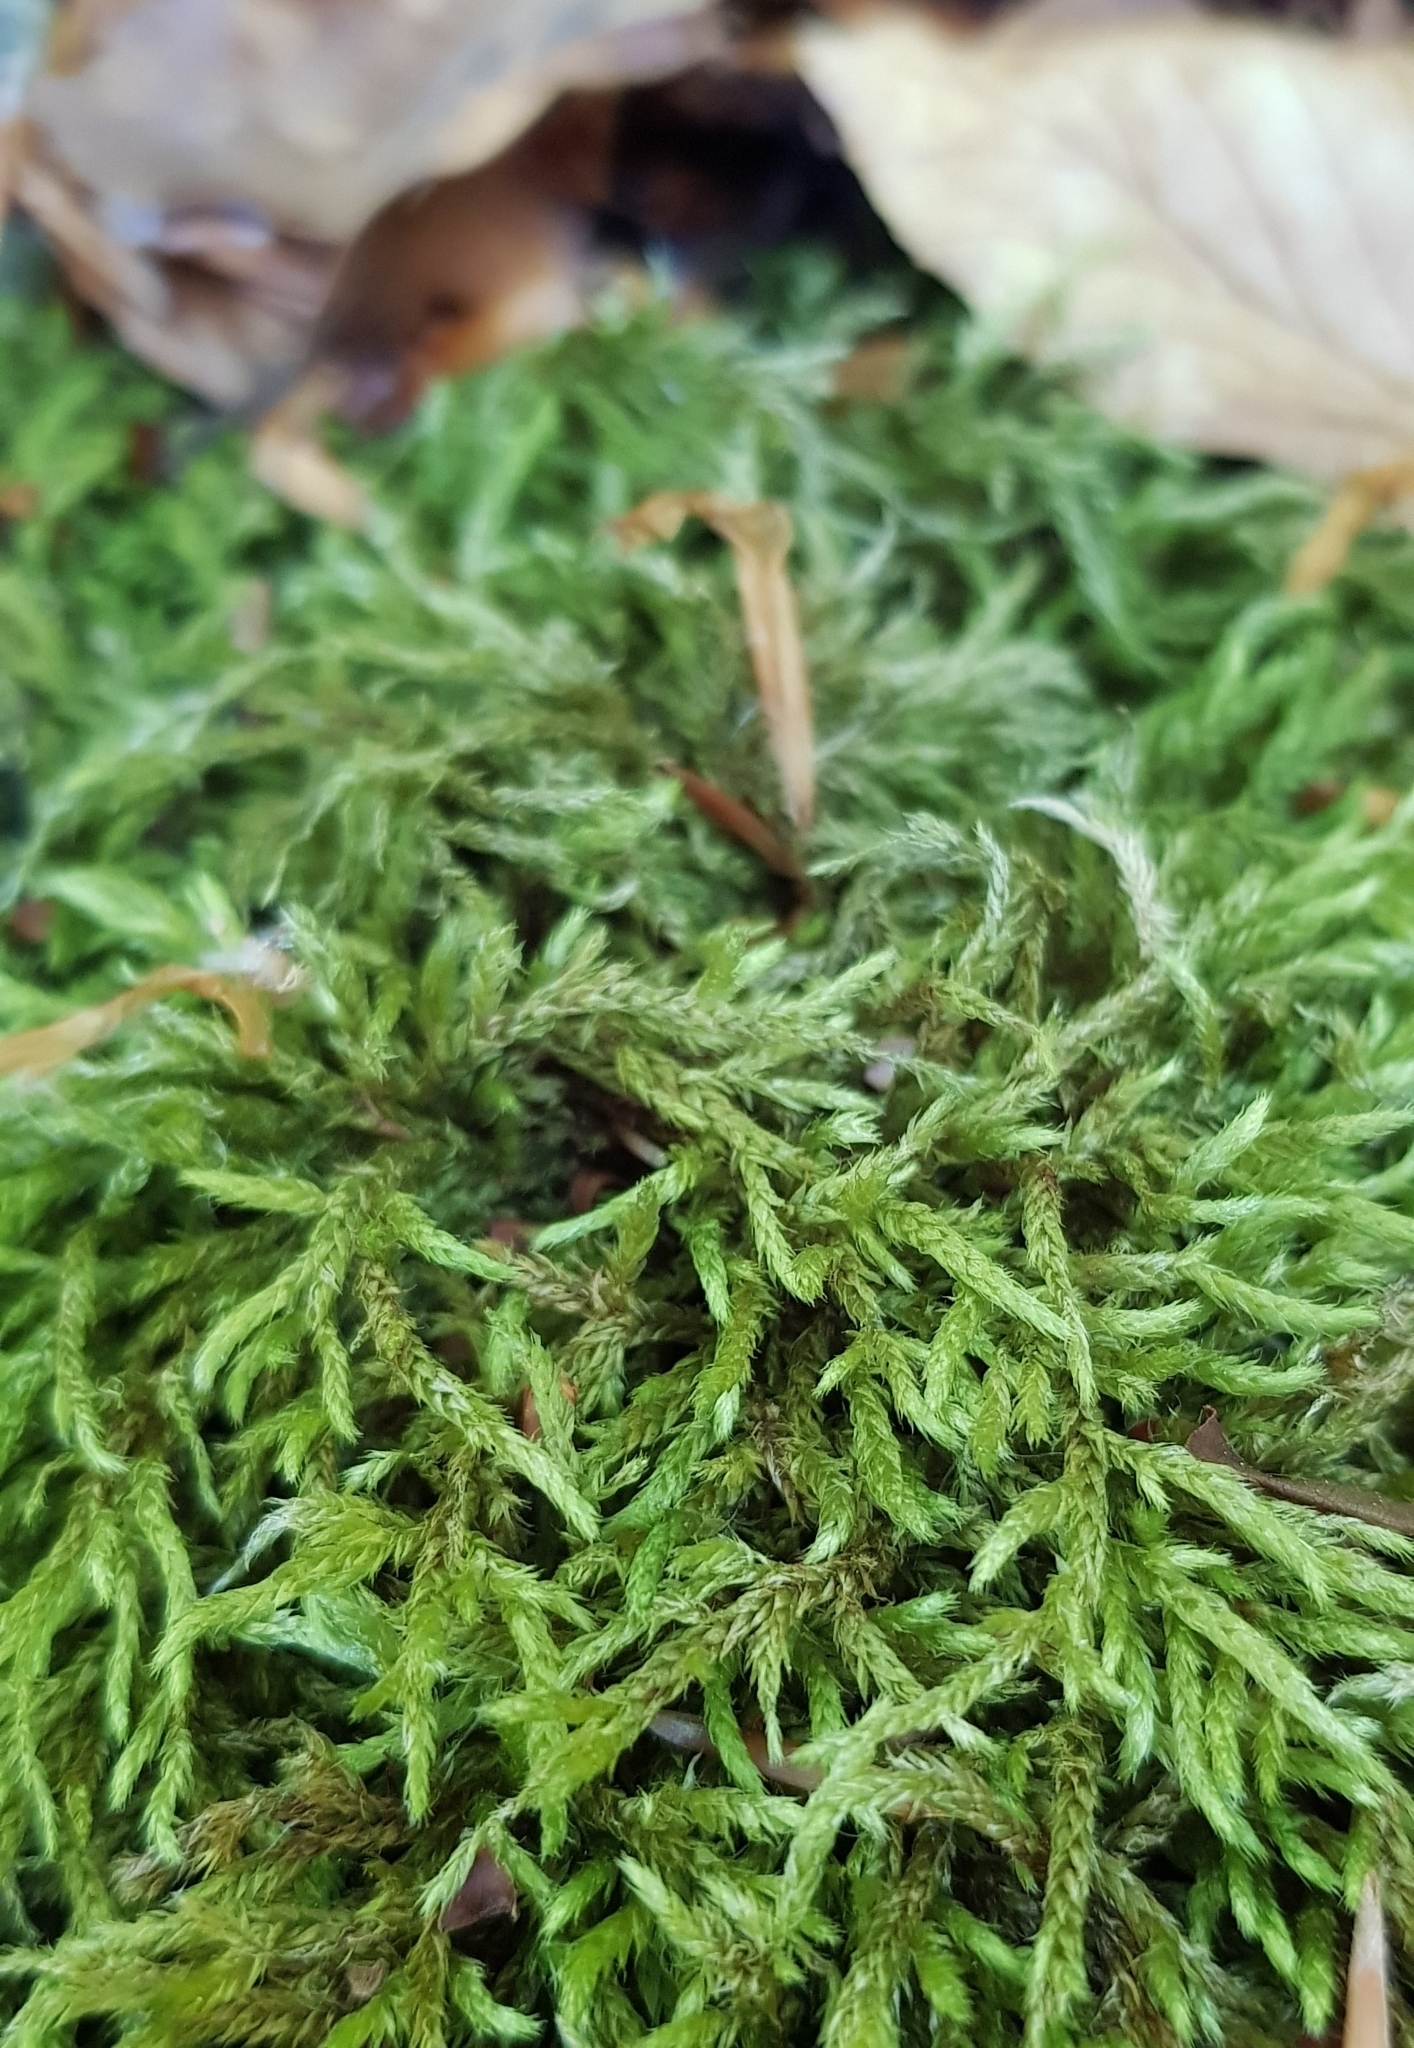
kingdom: Plantae
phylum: Bryophyta
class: Bryopsida
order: Hypnales
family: Brachytheciaceae
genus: Cirriphyllum
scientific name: Cirriphyllum crassinervium
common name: Beech feather-moss
